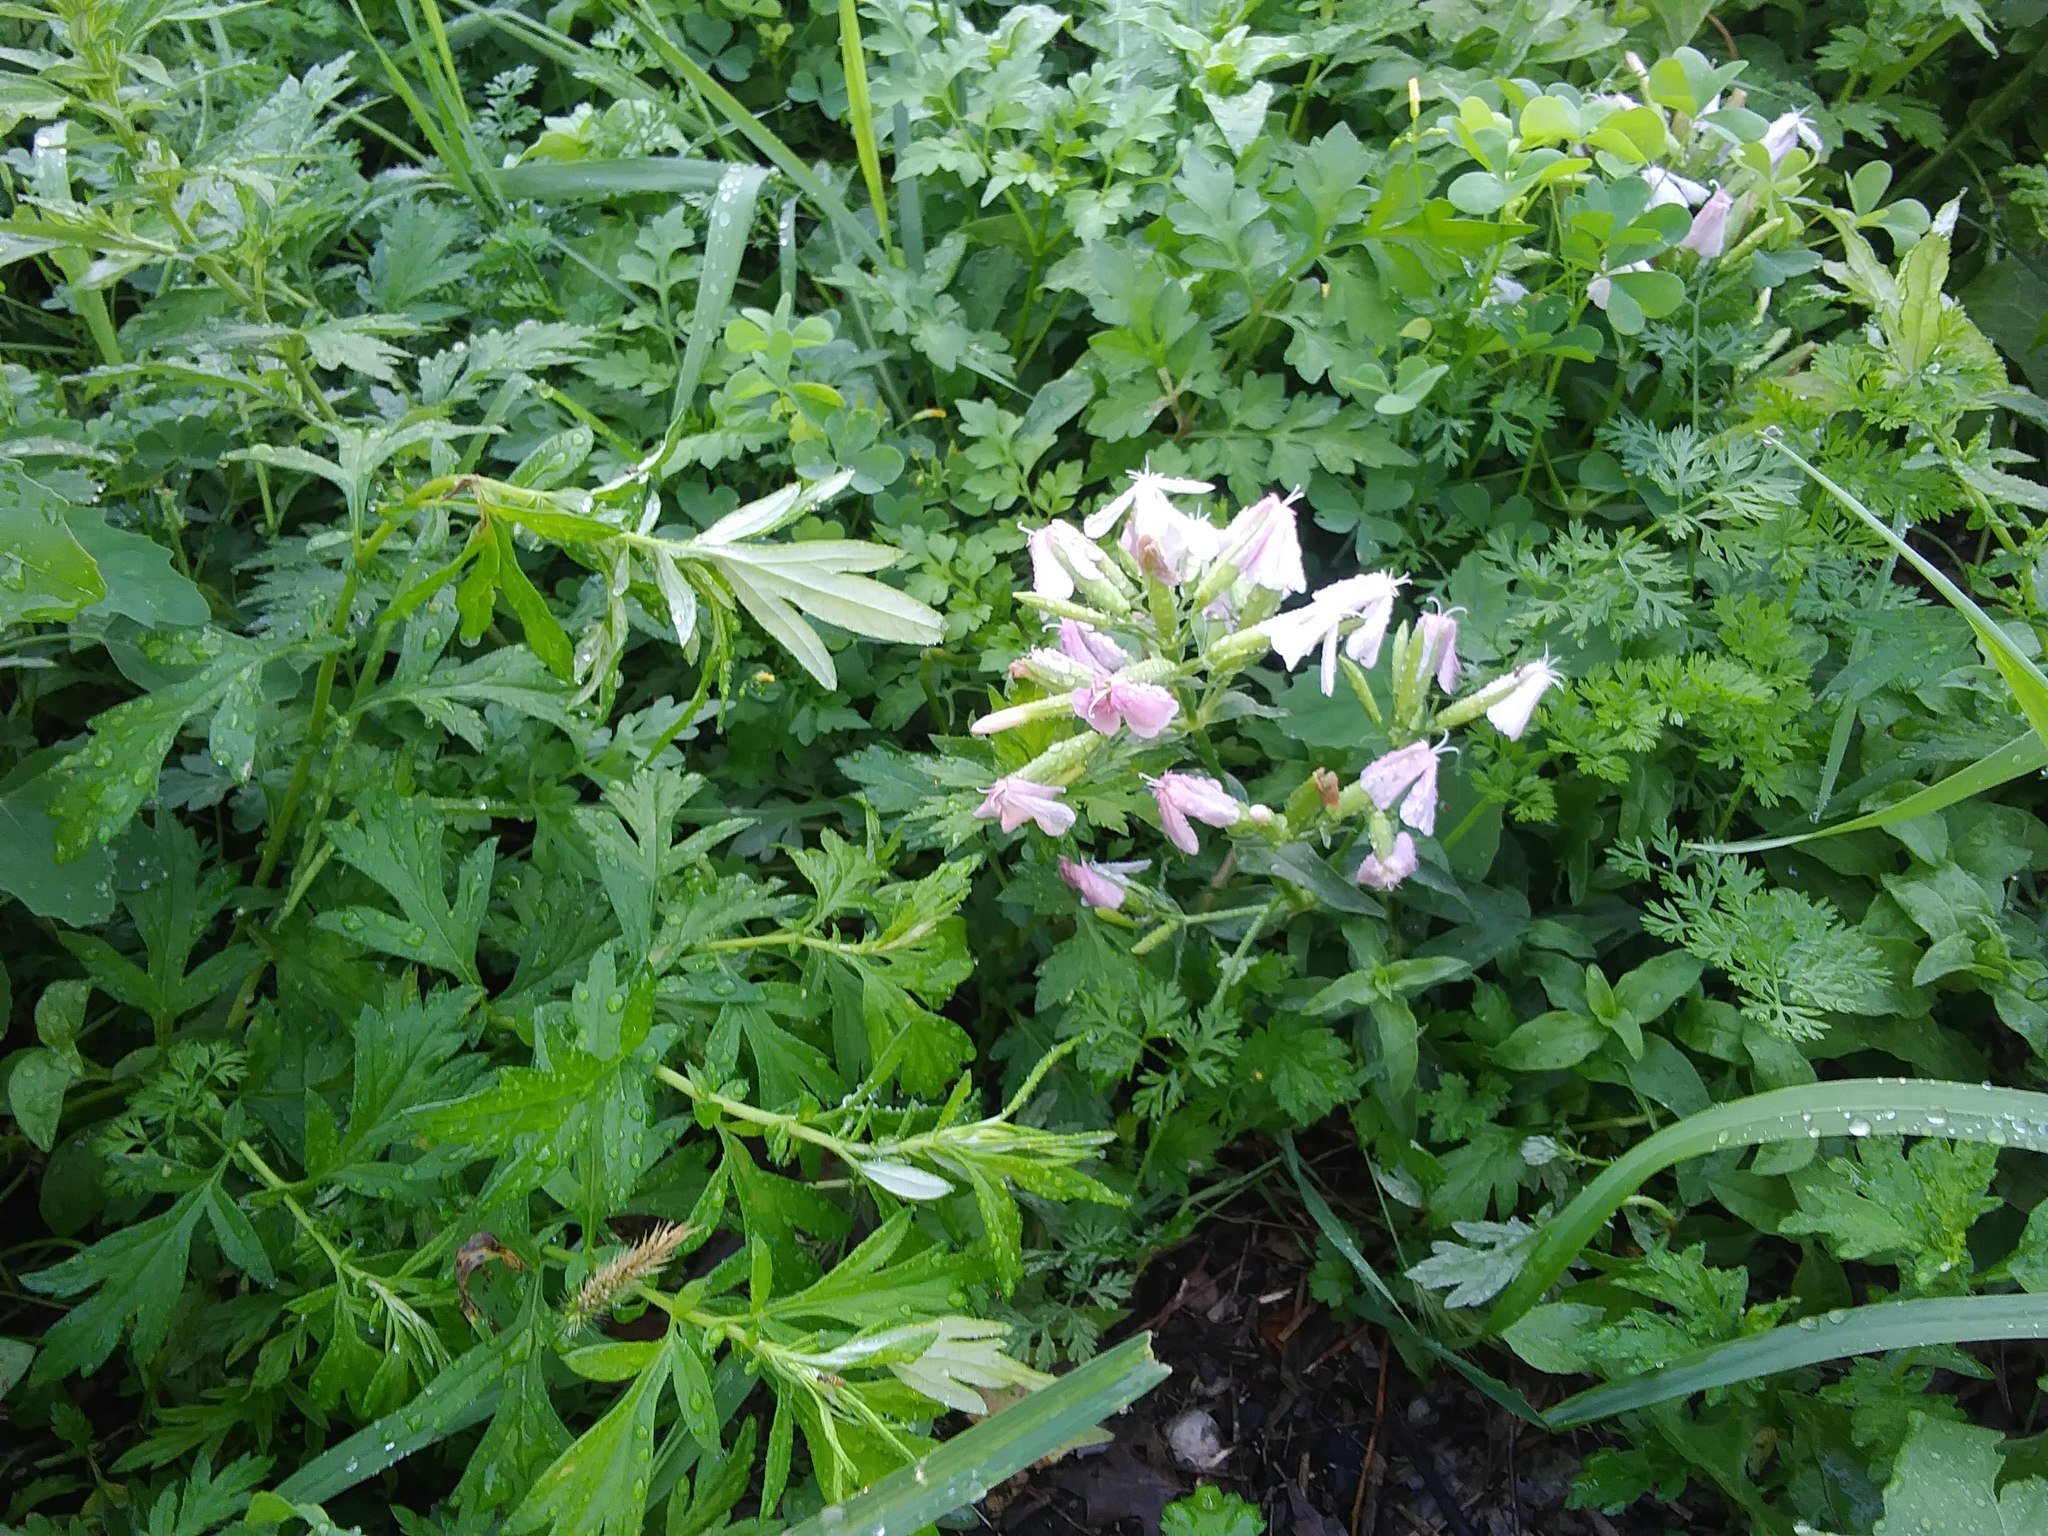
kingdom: Plantae
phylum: Tracheophyta
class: Magnoliopsida
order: Caryophyllales
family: Caryophyllaceae
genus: Saponaria
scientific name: Saponaria officinalis
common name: Soapwort
